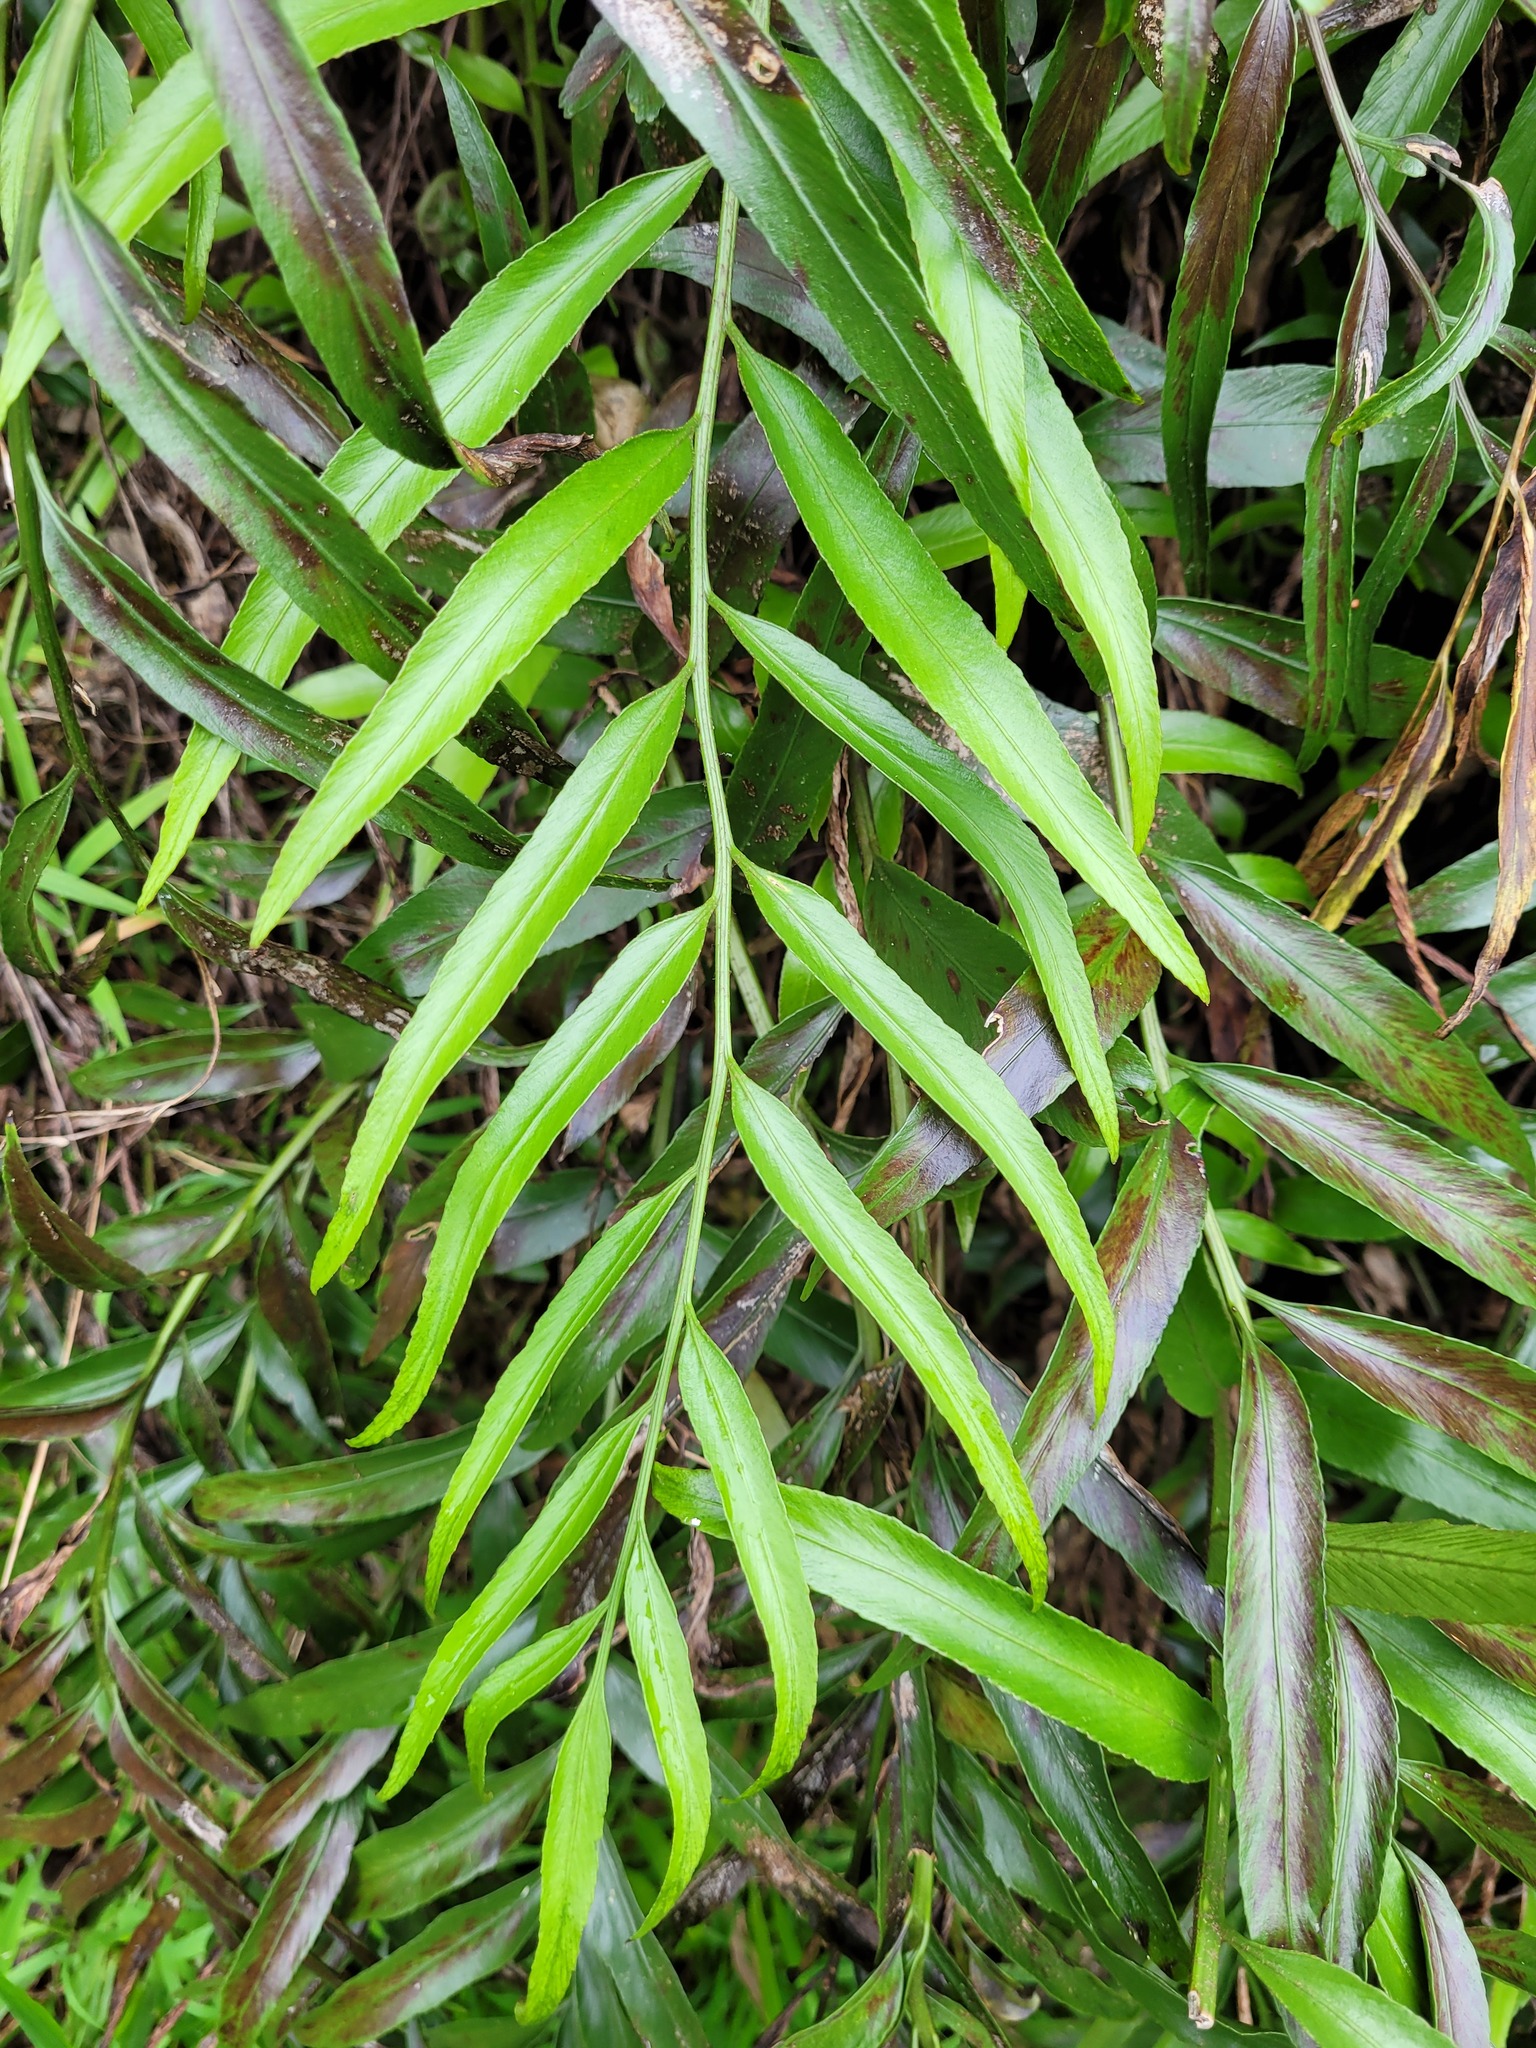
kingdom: Plantae
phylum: Tracheophyta
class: Polypodiopsida
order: Polypodiales
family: Aspleniaceae
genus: Asplenium
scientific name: Asplenium oblongifolium
